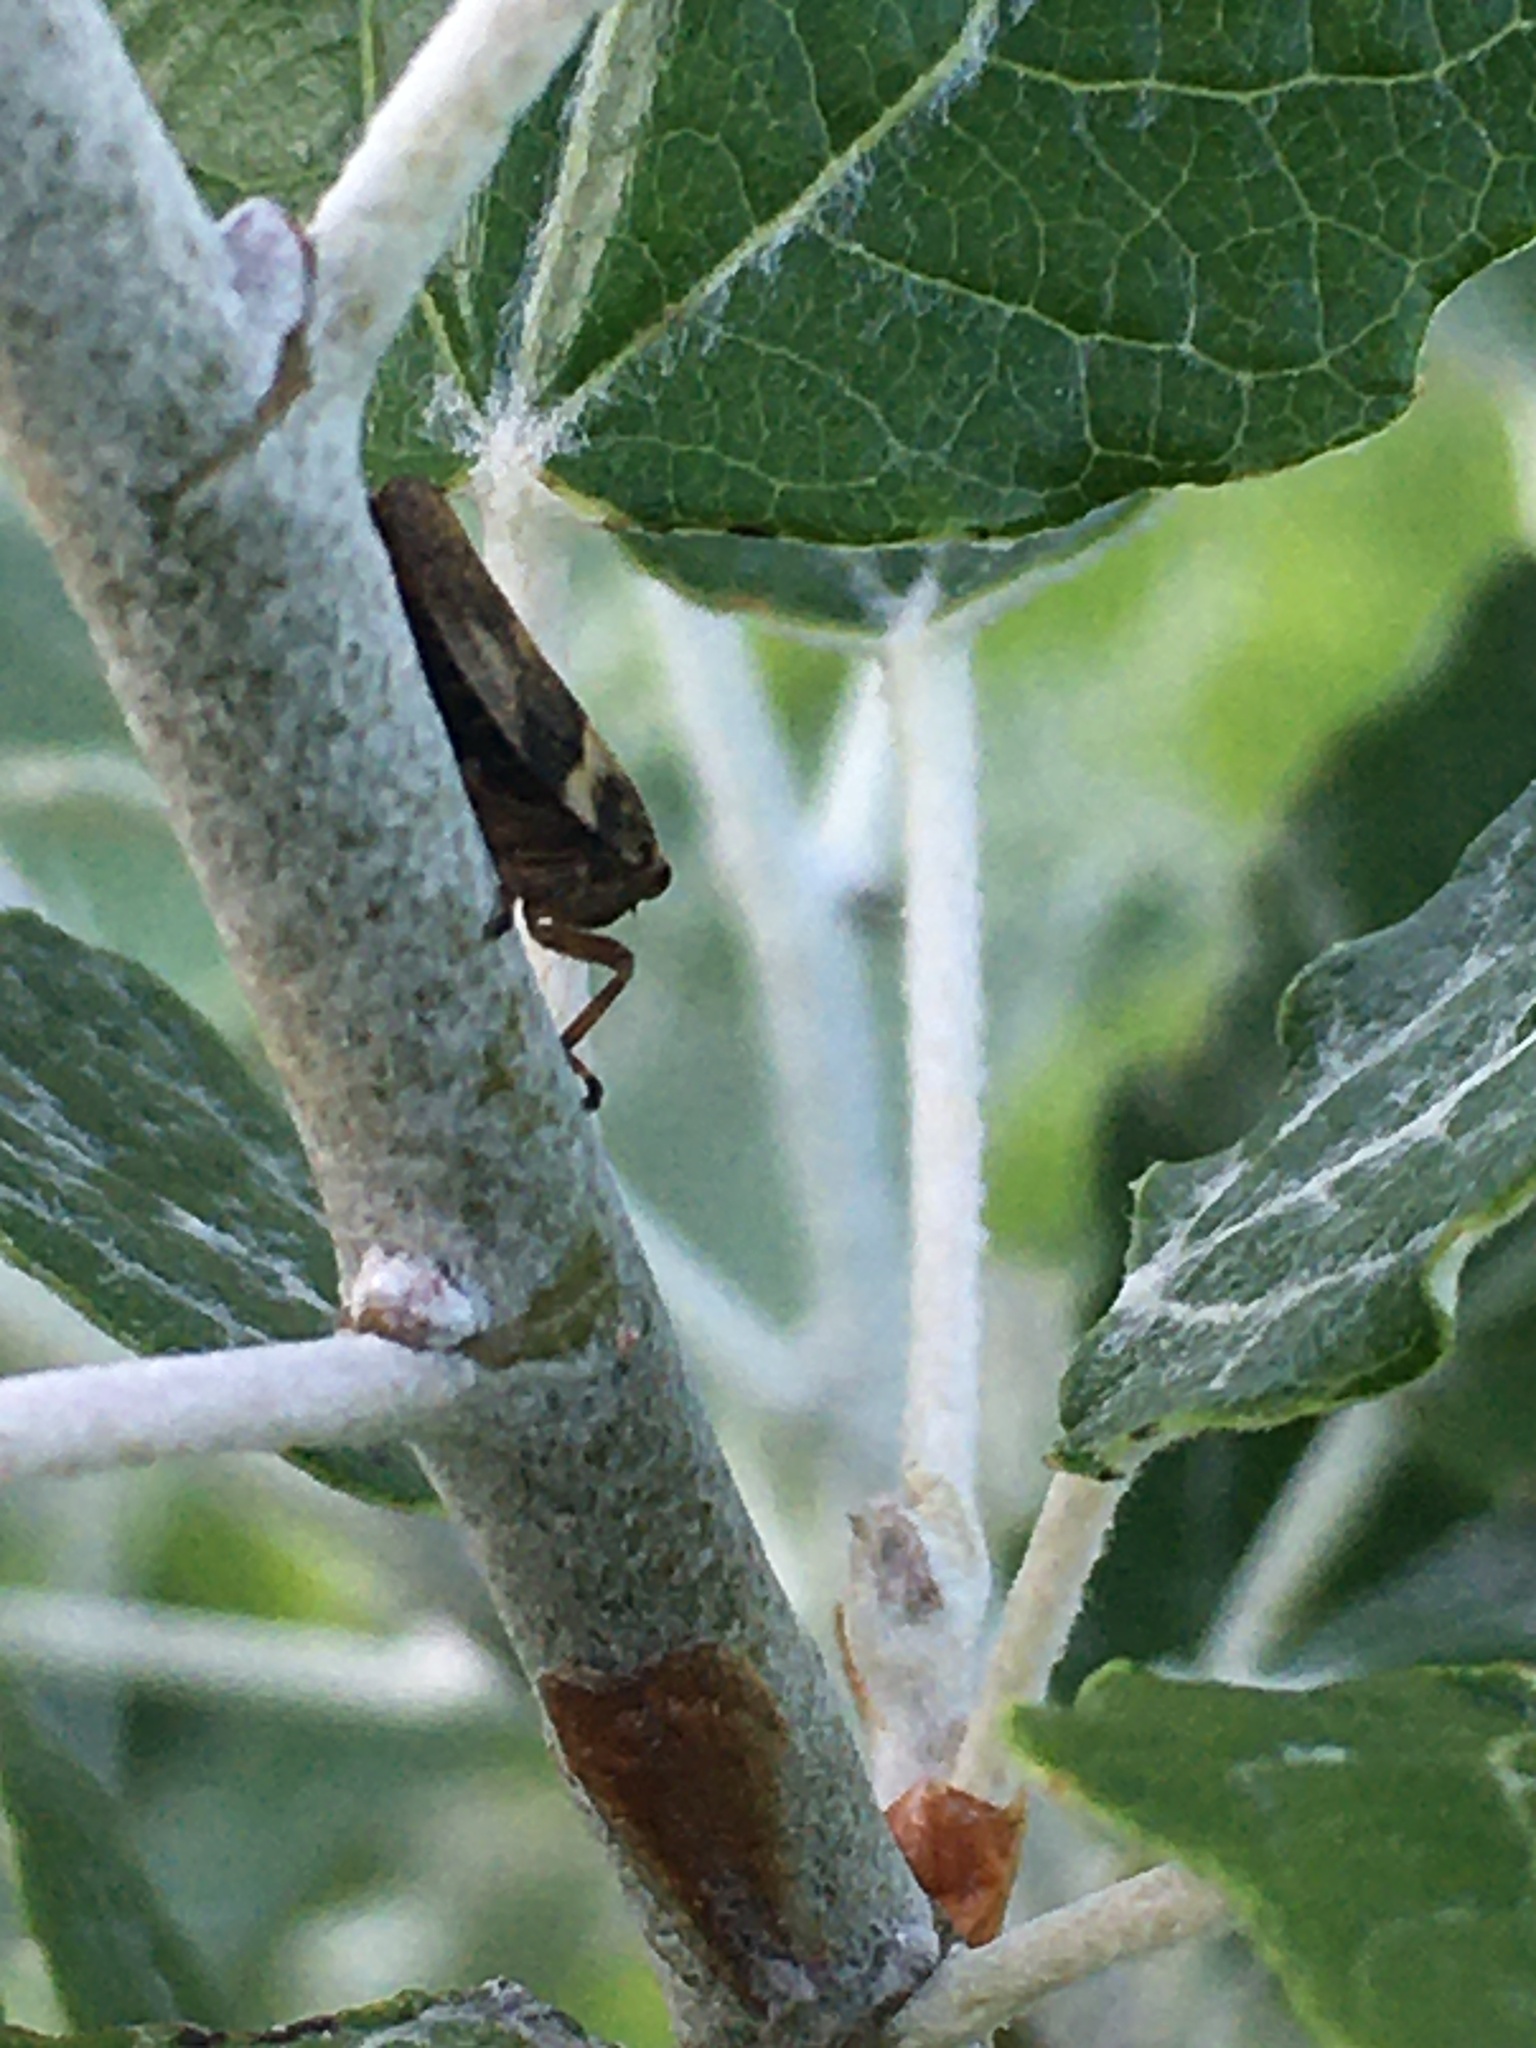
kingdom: Animalia
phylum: Arthropoda
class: Insecta
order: Hemiptera
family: Aphrophoridae
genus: Aphrophora
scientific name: Aphrophora alni
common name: European alder spittlebug
